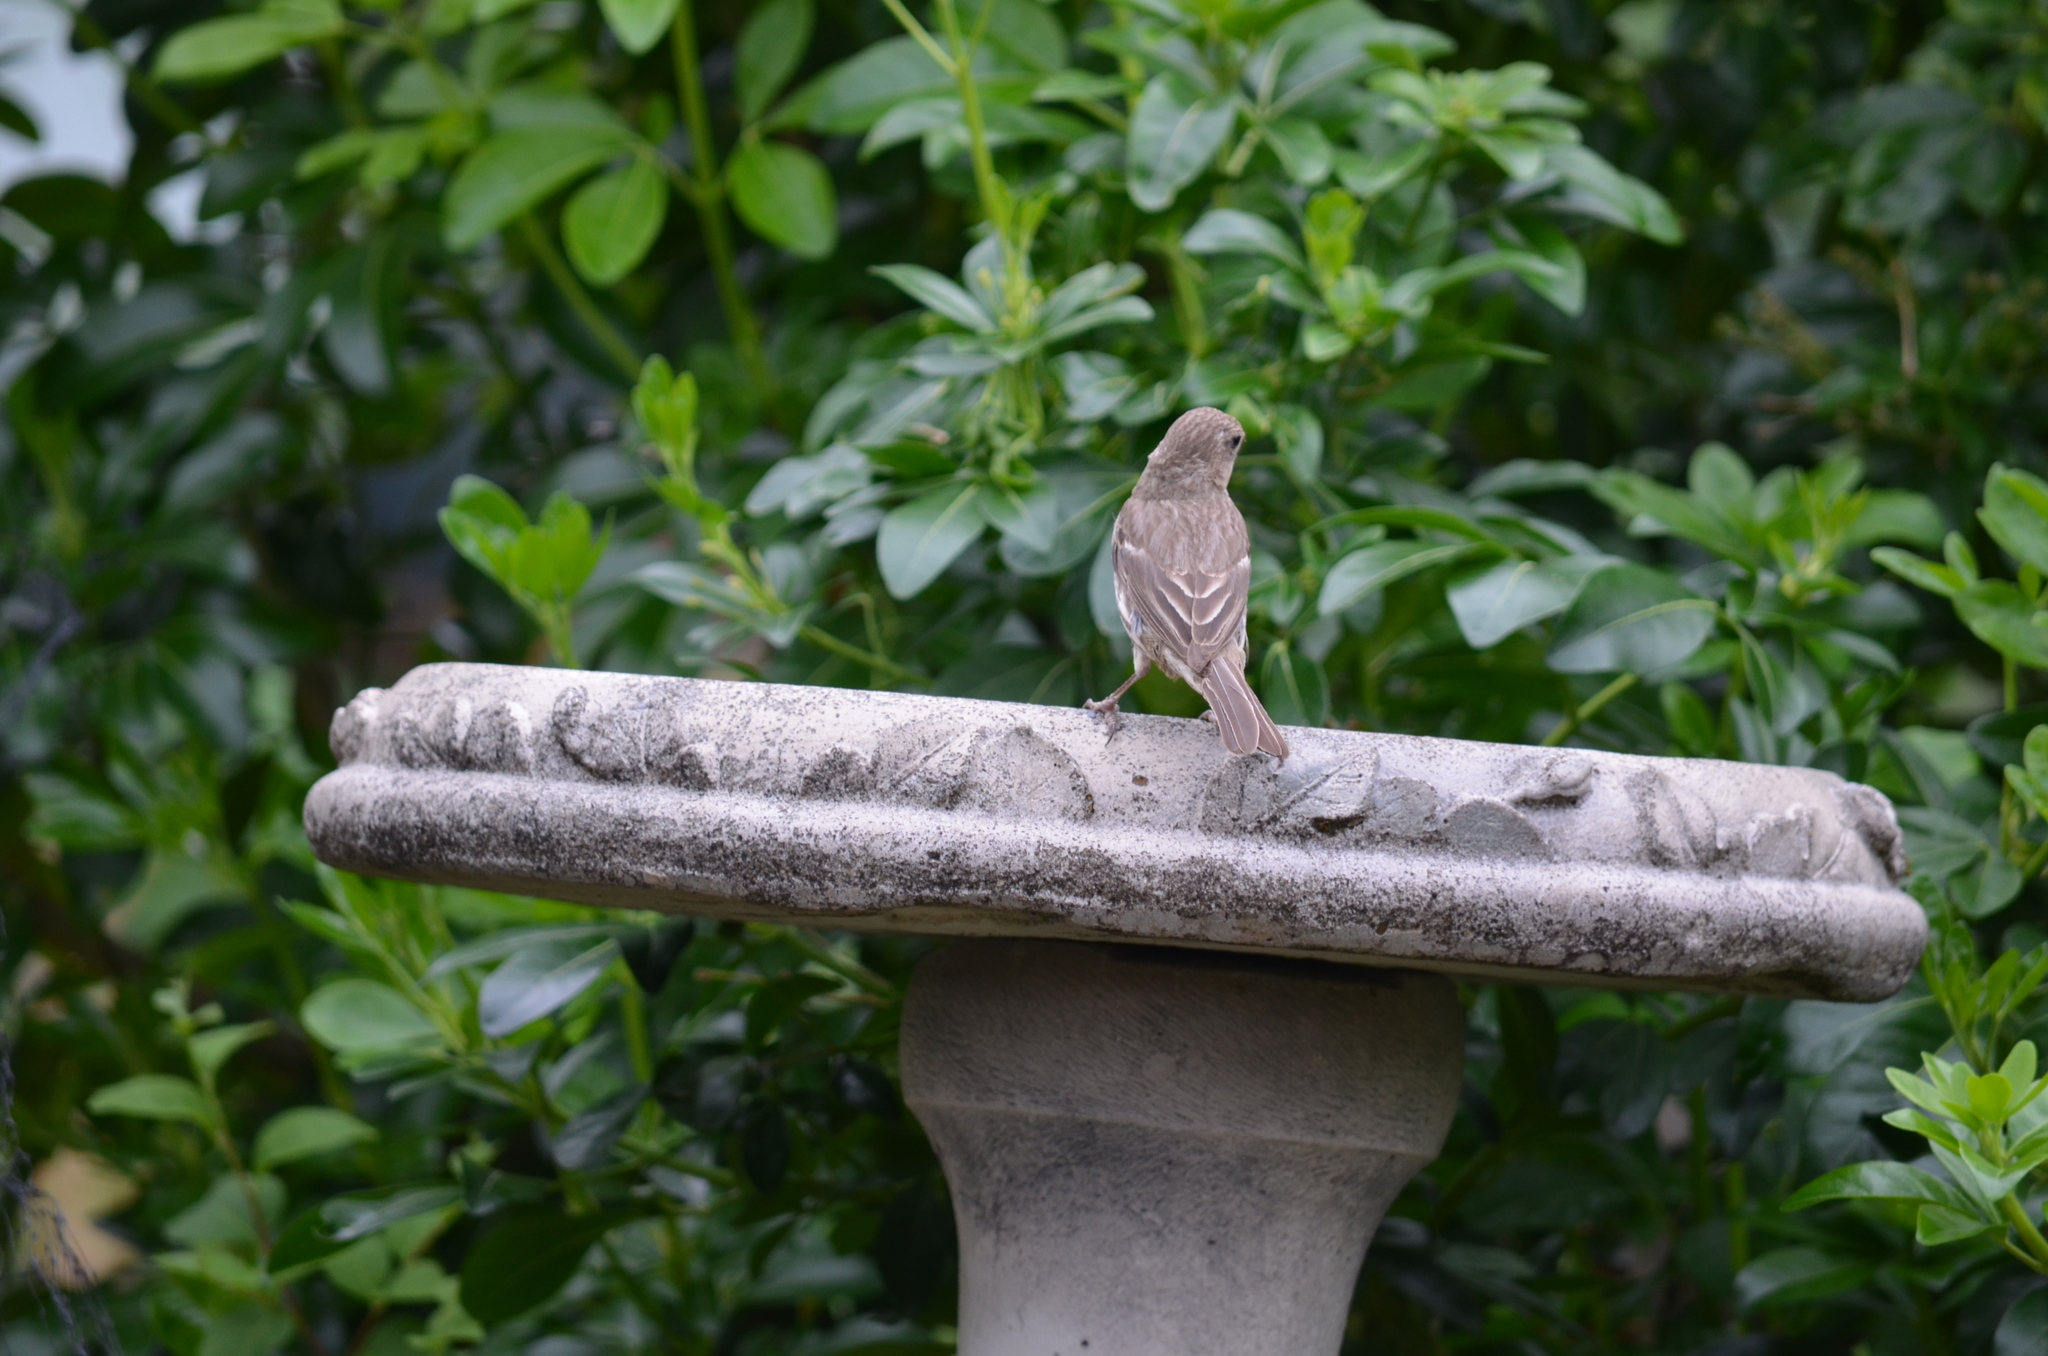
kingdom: Animalia
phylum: Chordata
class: Aves
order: Passeriformes
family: Fringillidae
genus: Haemorhous
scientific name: Haemorhous mexicanus
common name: House finch
